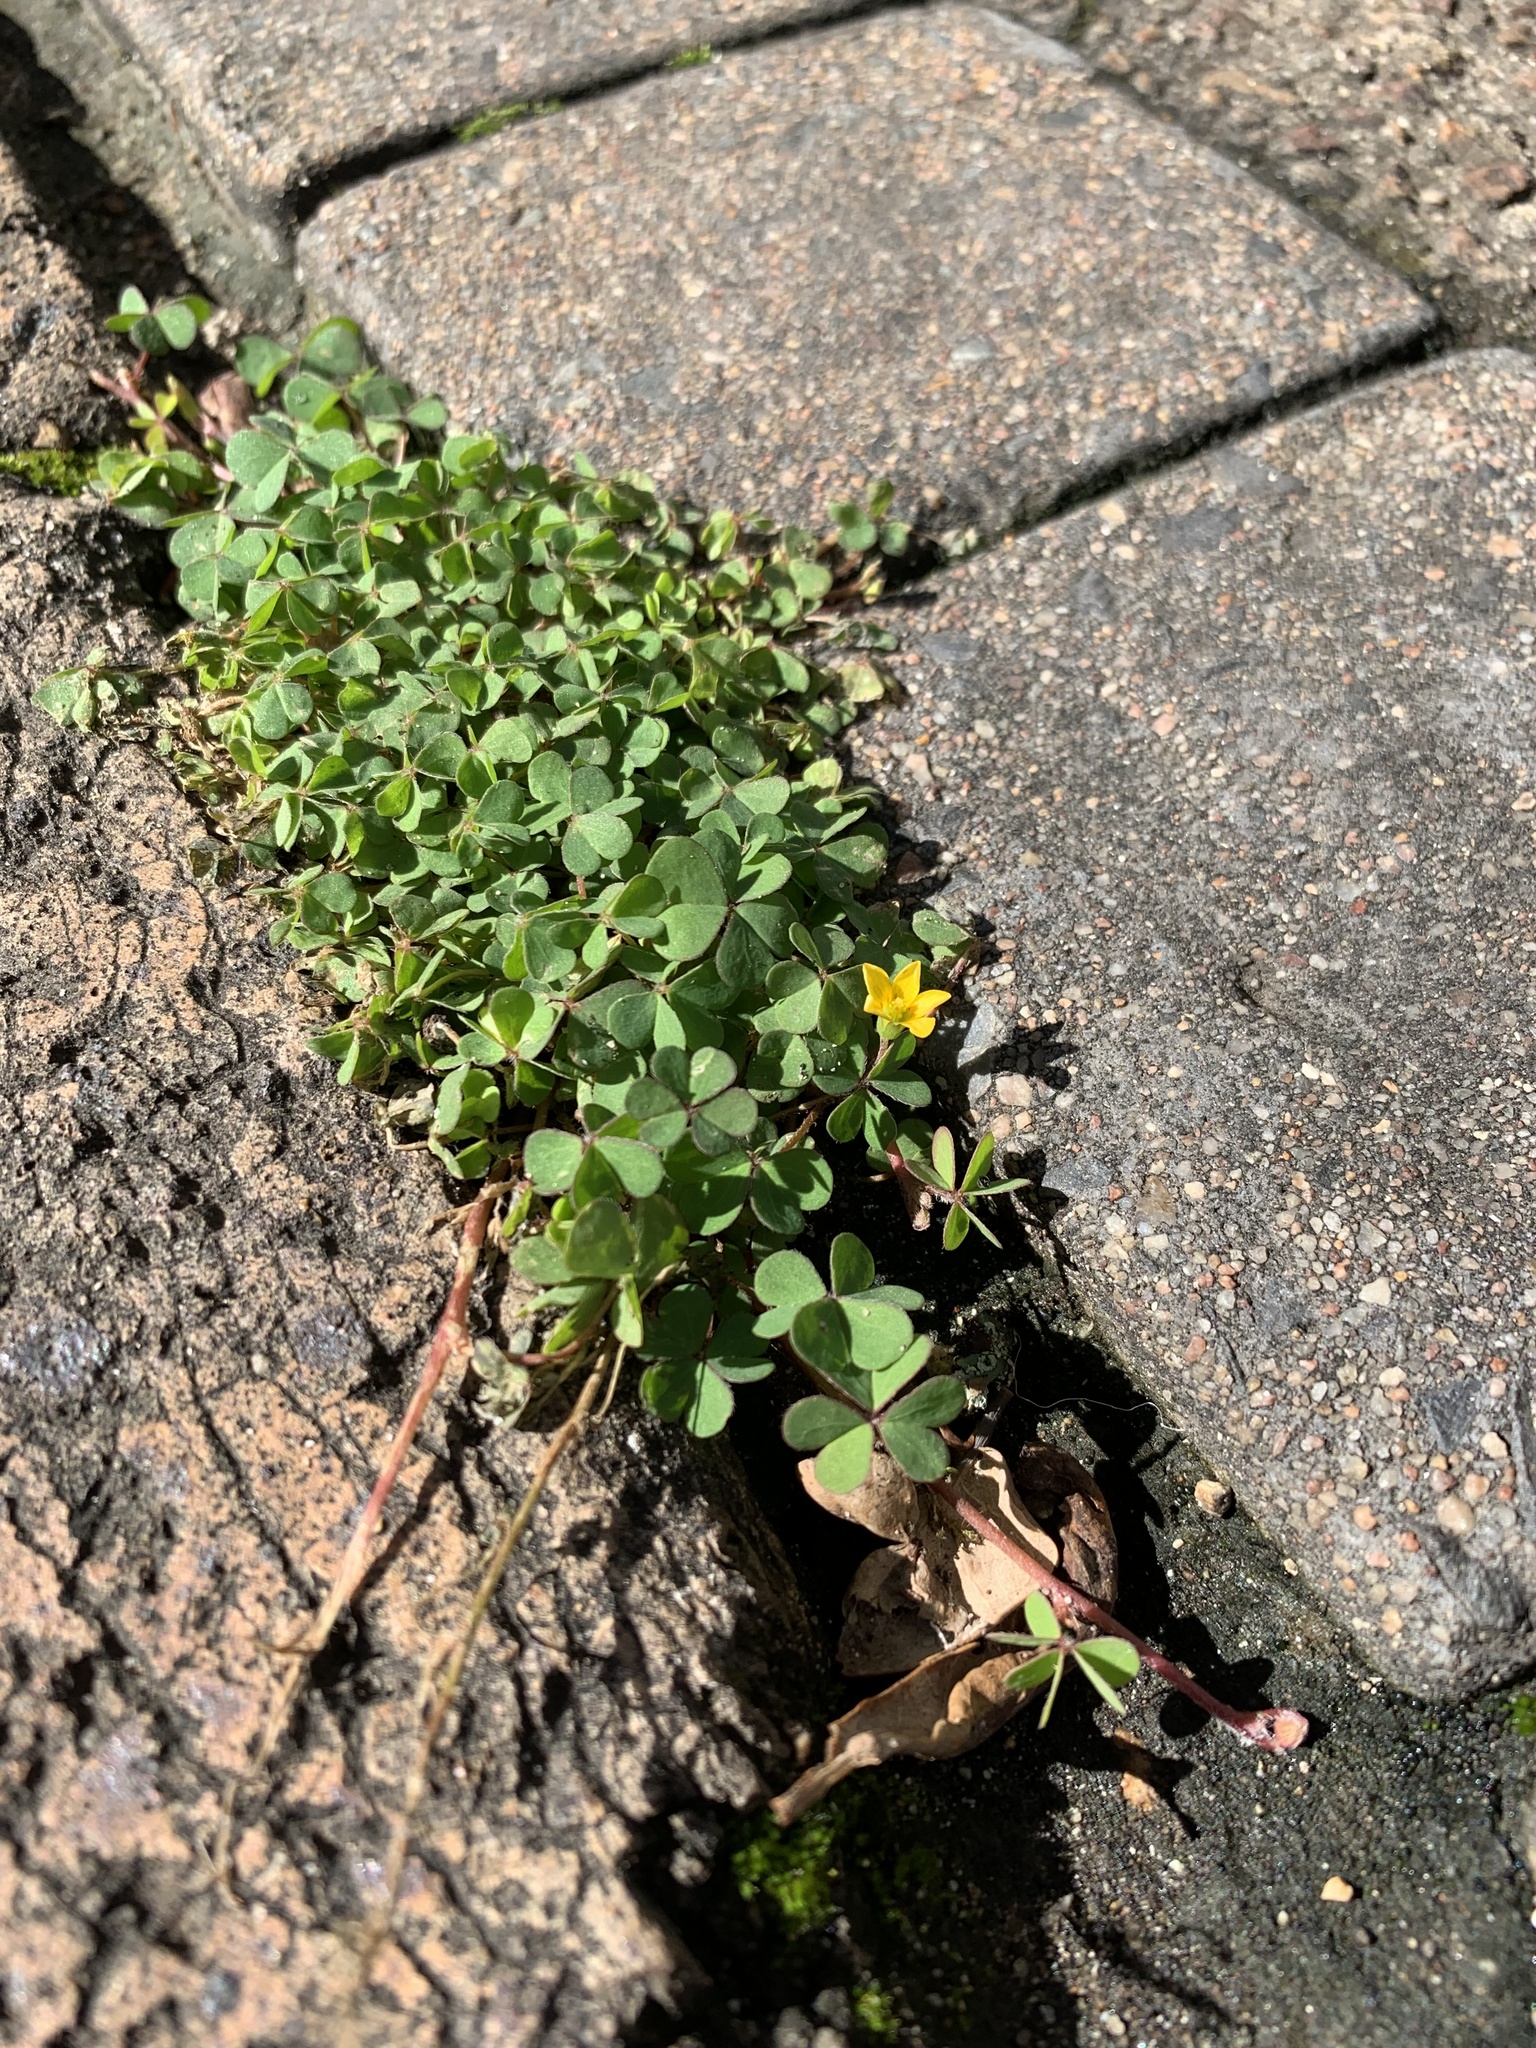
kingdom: Plantae
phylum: Tracheophyta
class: Magnoliopsida
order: Oxalidales
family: Oxalidaceae
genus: Oxalis
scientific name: Oxalis corniculata
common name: Procumbent yellow-sorrel
